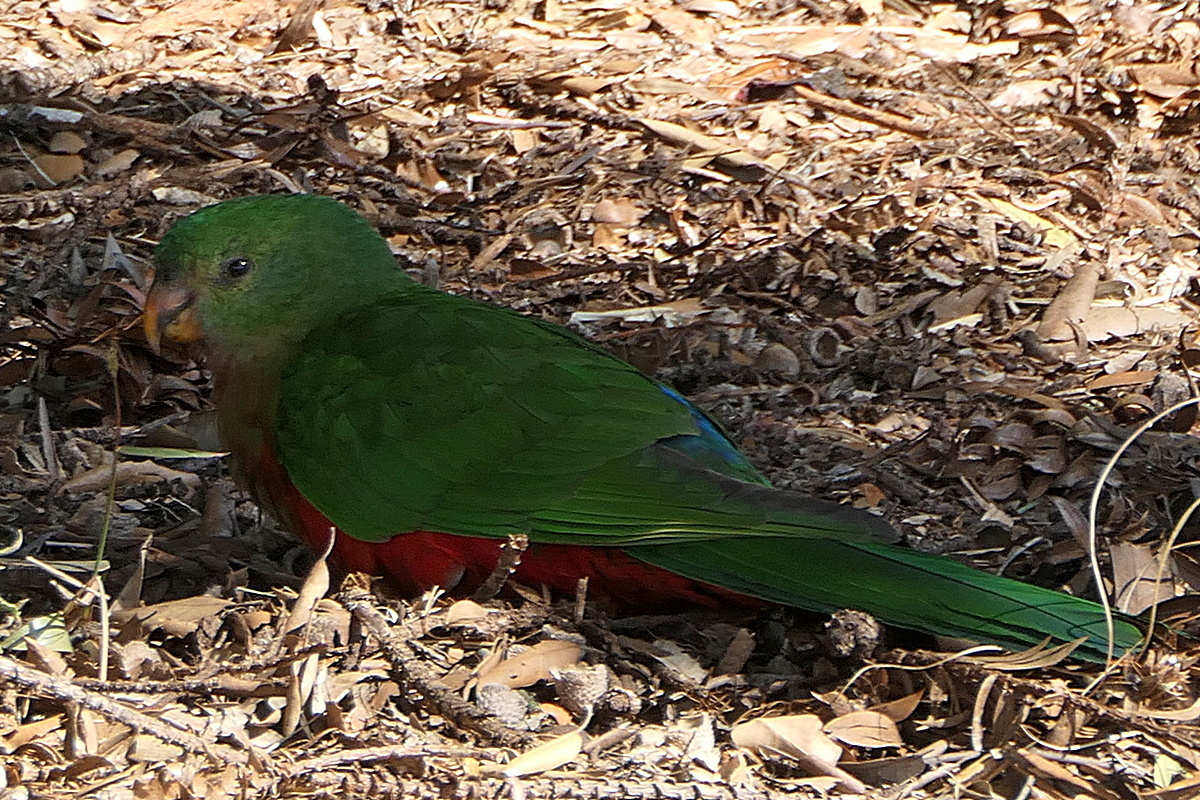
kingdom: Animalia
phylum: Chordata
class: Aves
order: Psittaciformes
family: Psittacidae
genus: Alisterus
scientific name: Alisterus scapularis
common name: Australian king parrot
